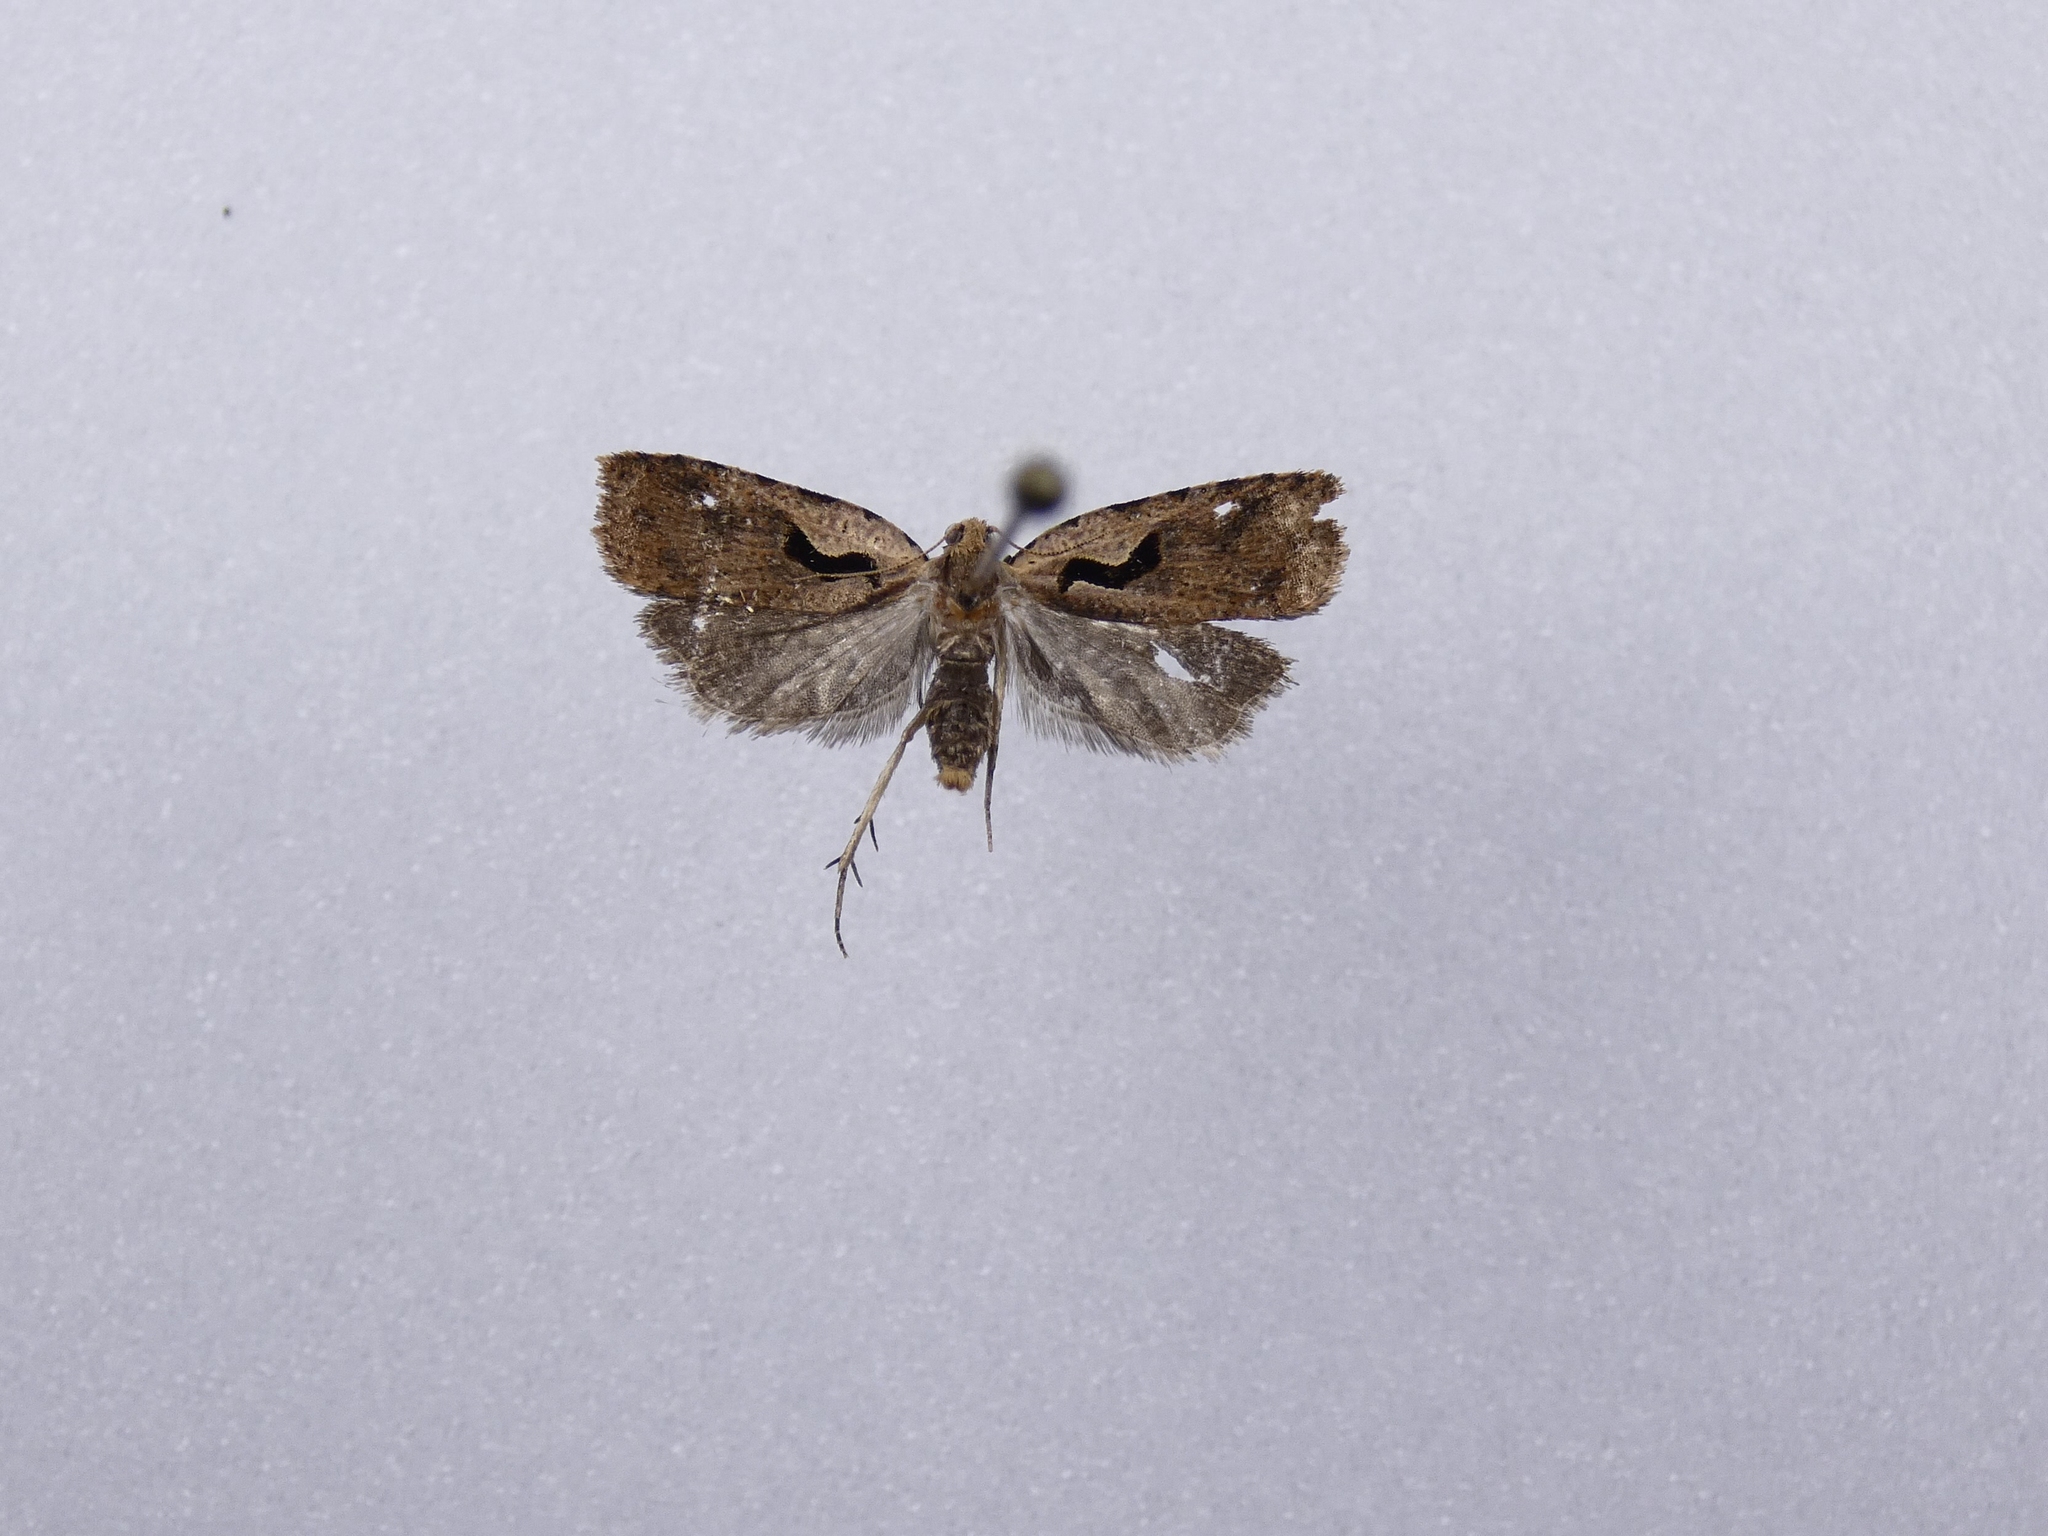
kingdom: Animalia
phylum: Arthropoda
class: Insecta
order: Lepidoptera
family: Tortricidae
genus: Cnephasia
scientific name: Cnephasia jactatana
